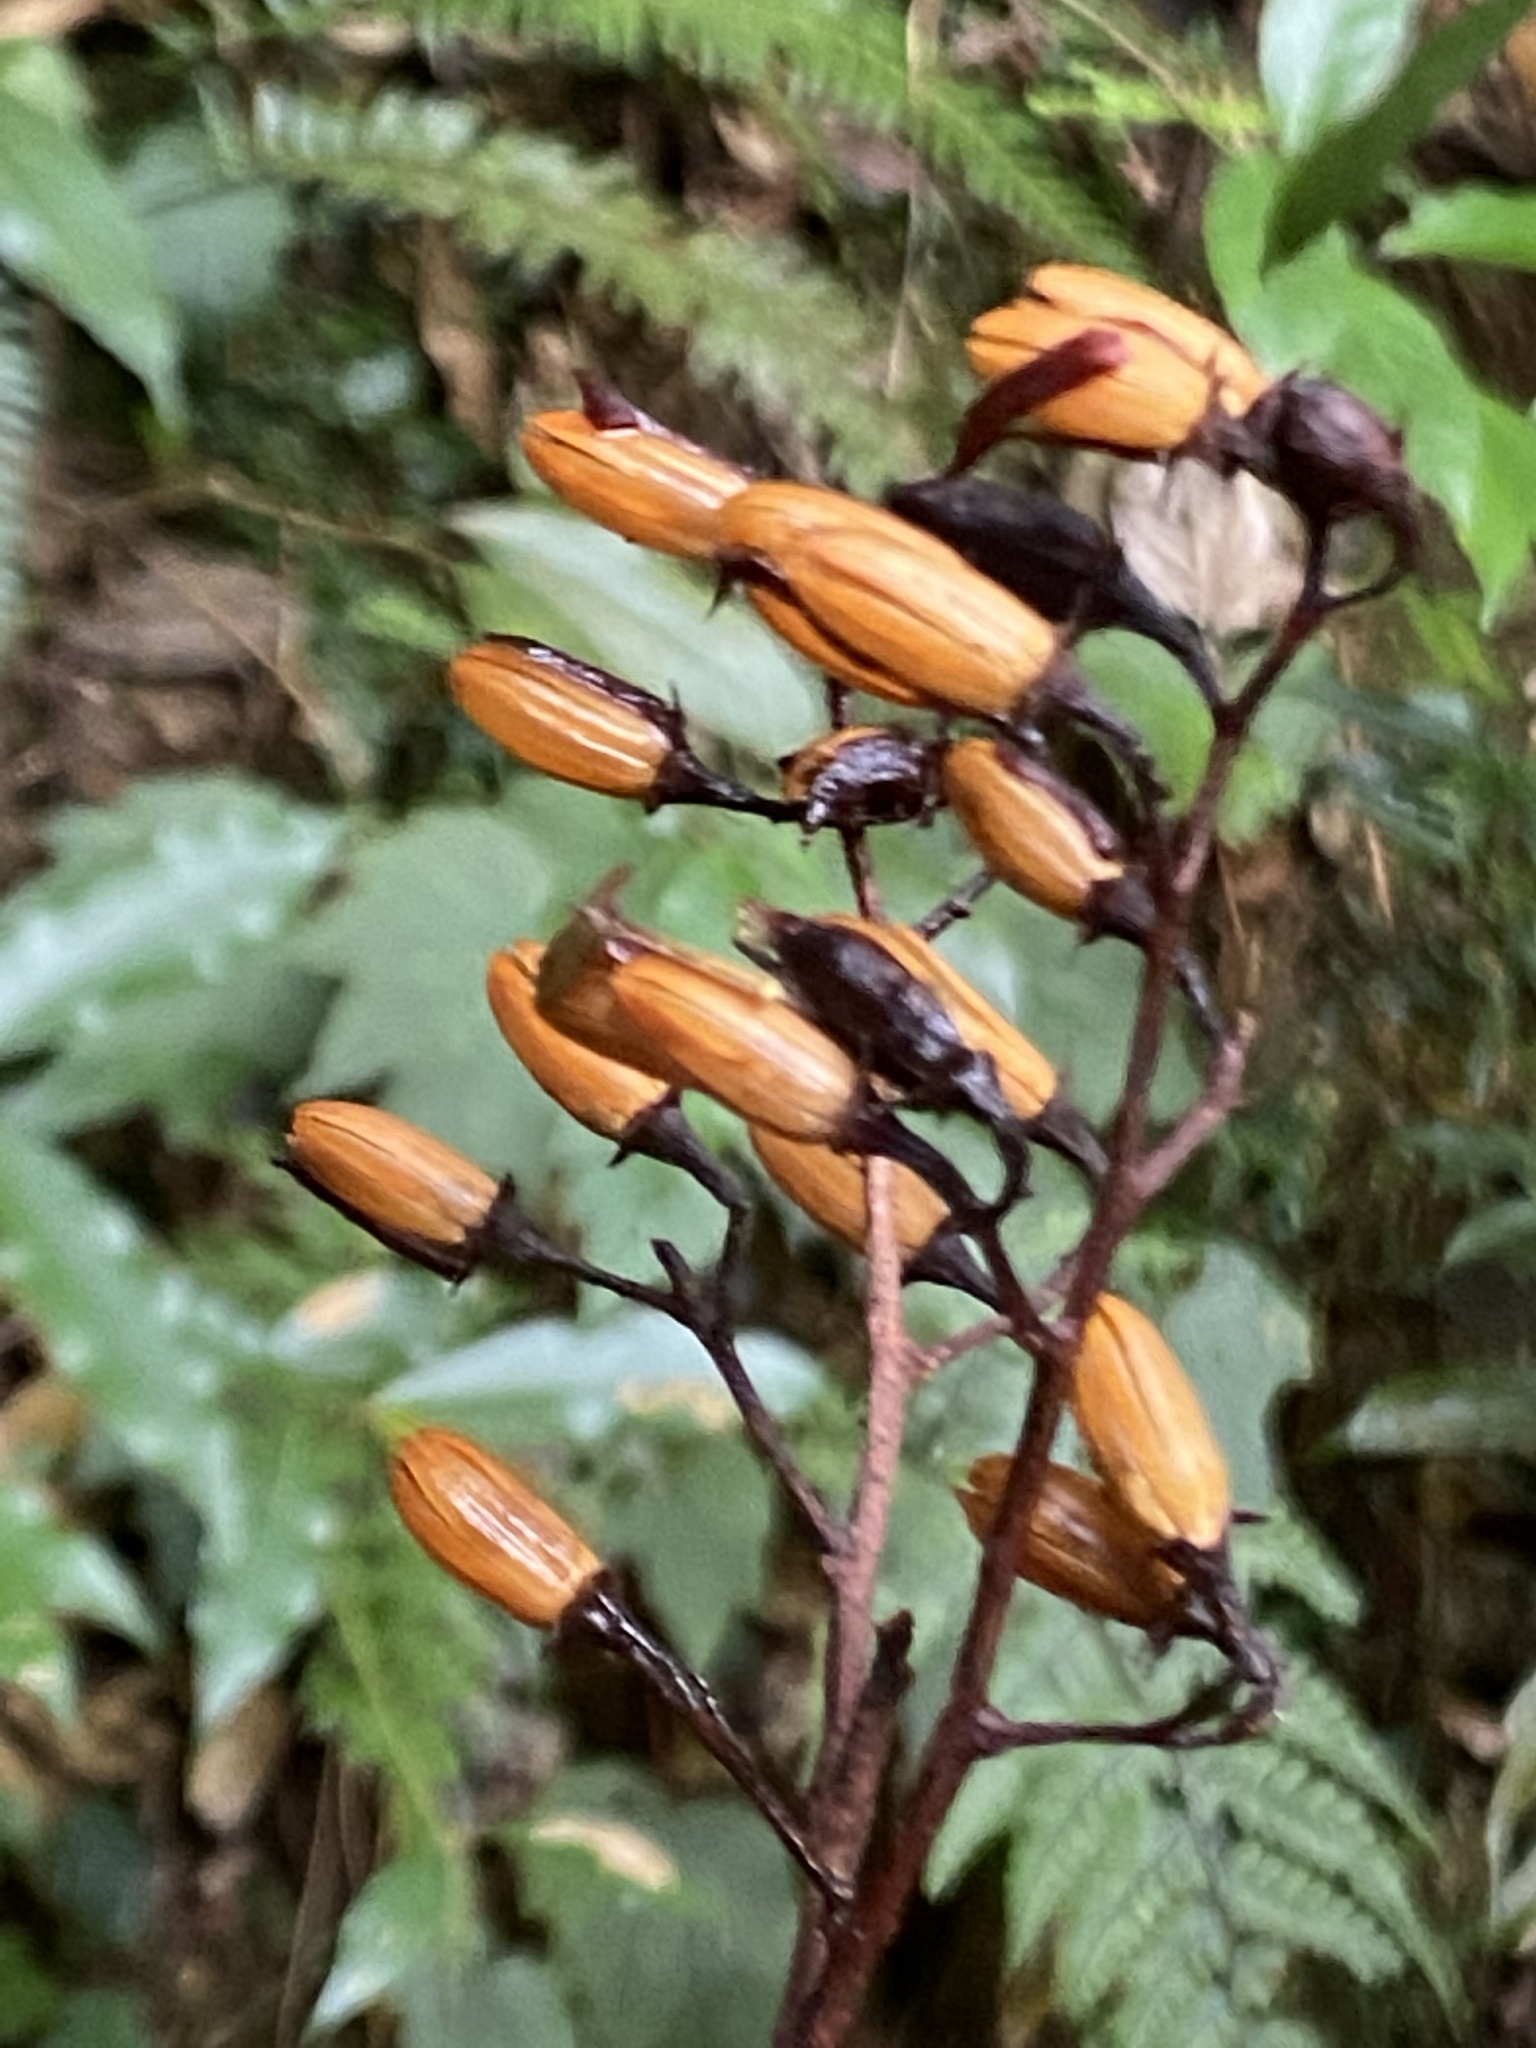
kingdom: Plantae
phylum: Tracheophyta
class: Magnoliopsida
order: Ericales
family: Styracaceae
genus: Alniphyllum
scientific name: Alniphyllum pterospermum
